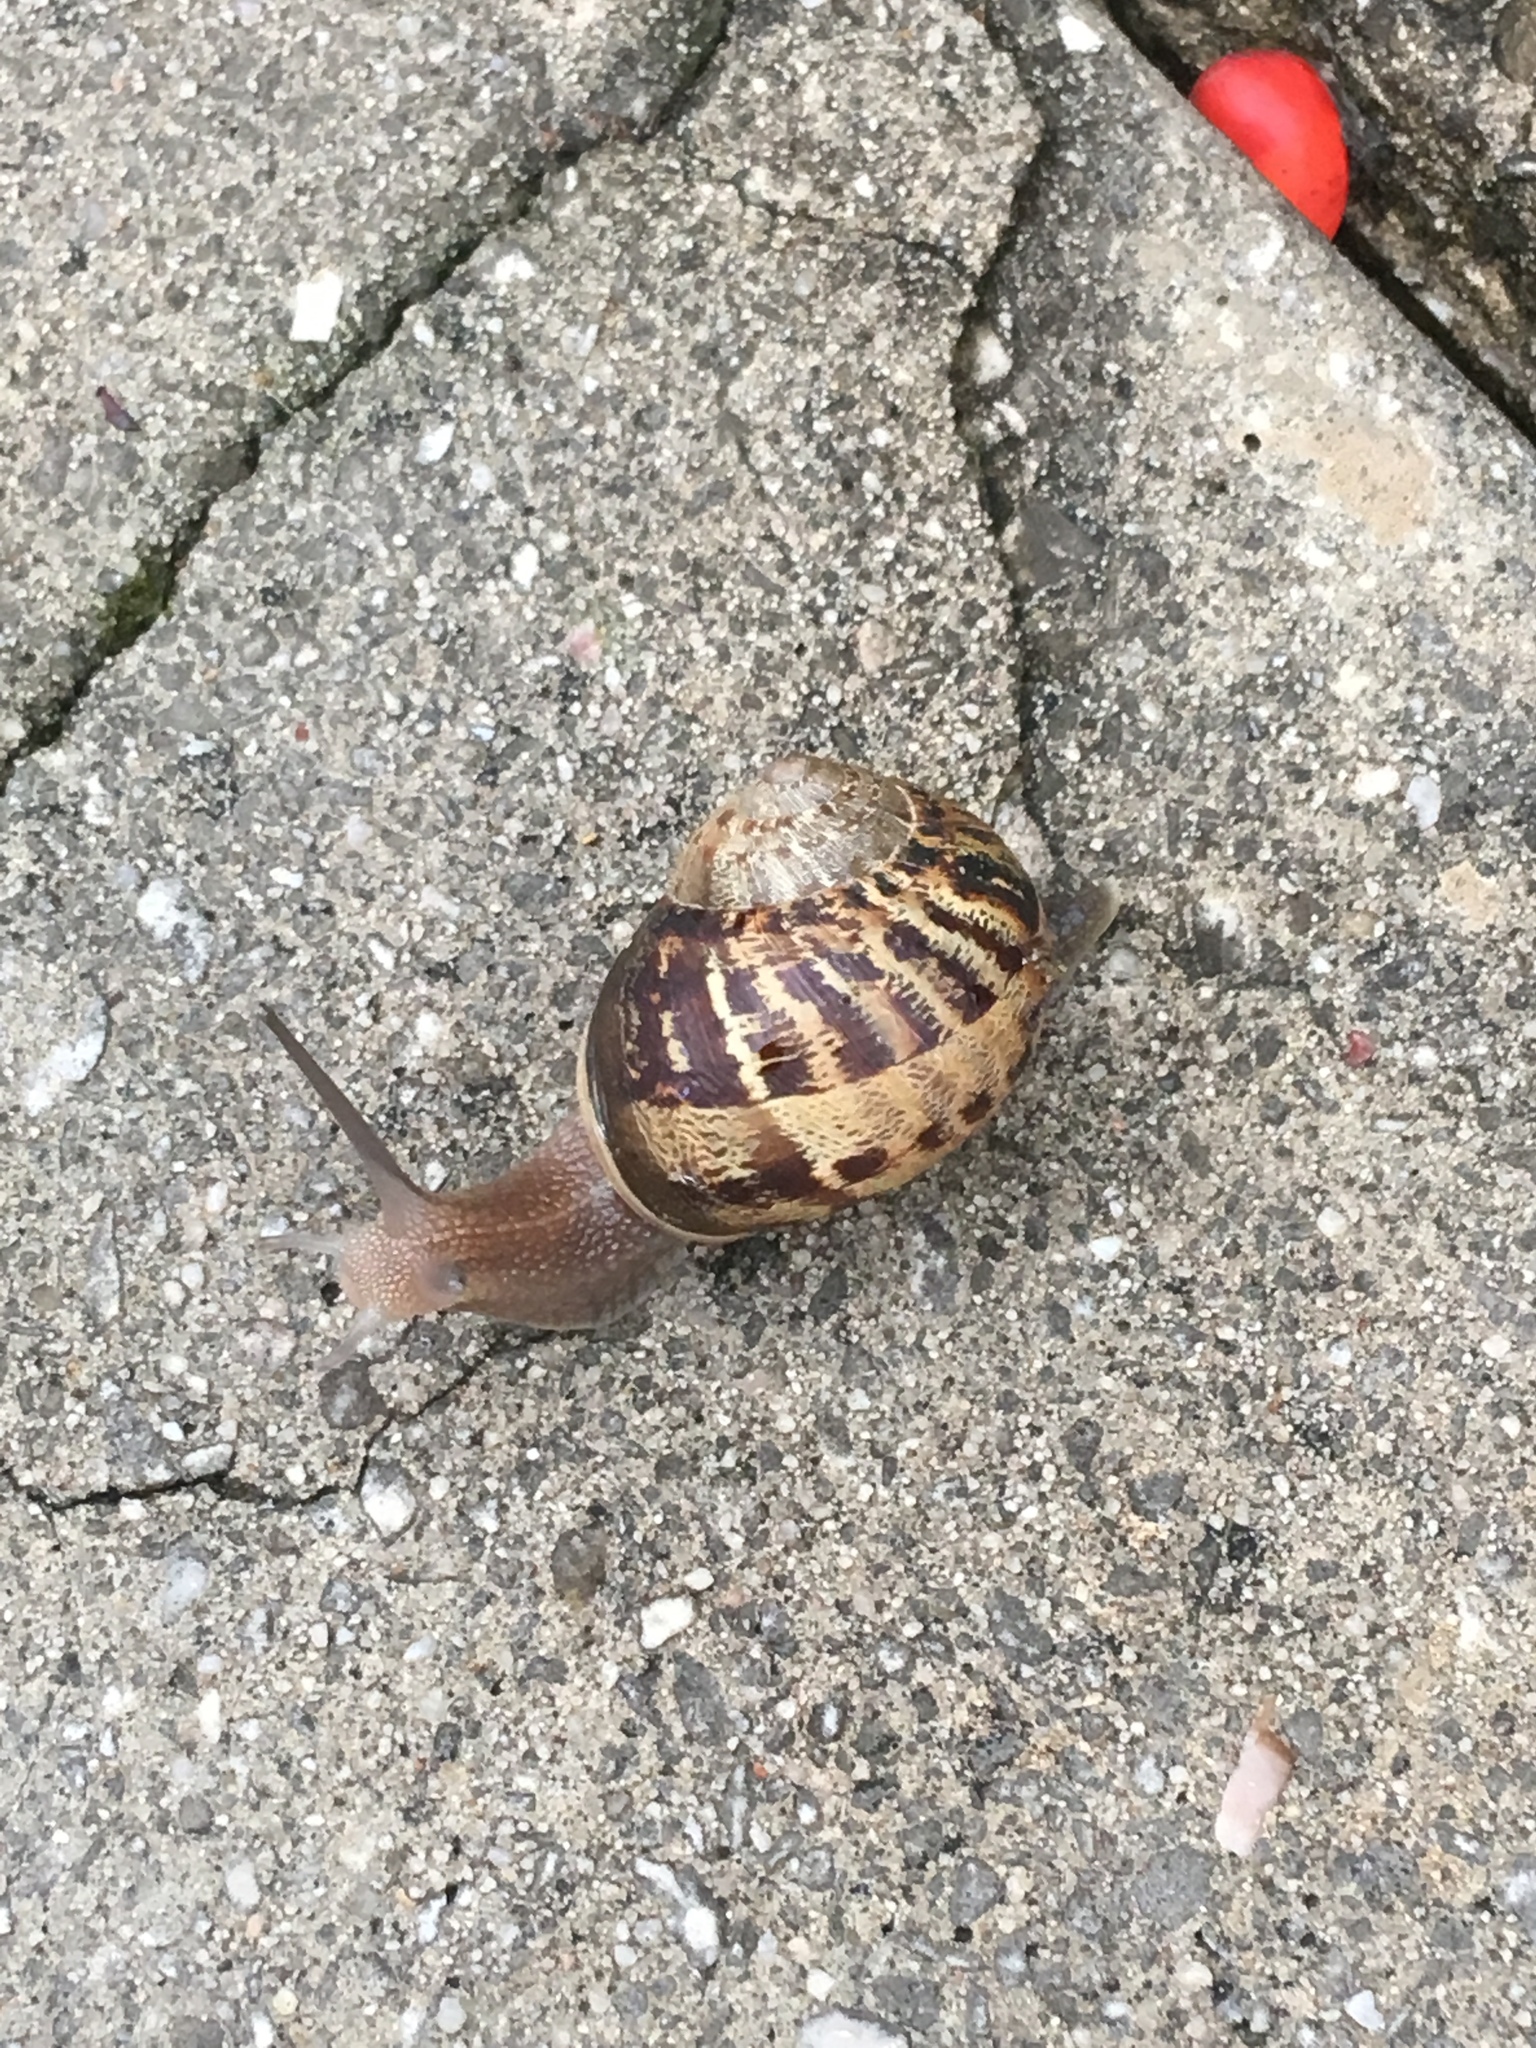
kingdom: Animalia
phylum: Mollusca
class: Gastropoda
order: Stylommatophora
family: Helicidae
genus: Cornu
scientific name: Cornu aspersum
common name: Brown garden snail
